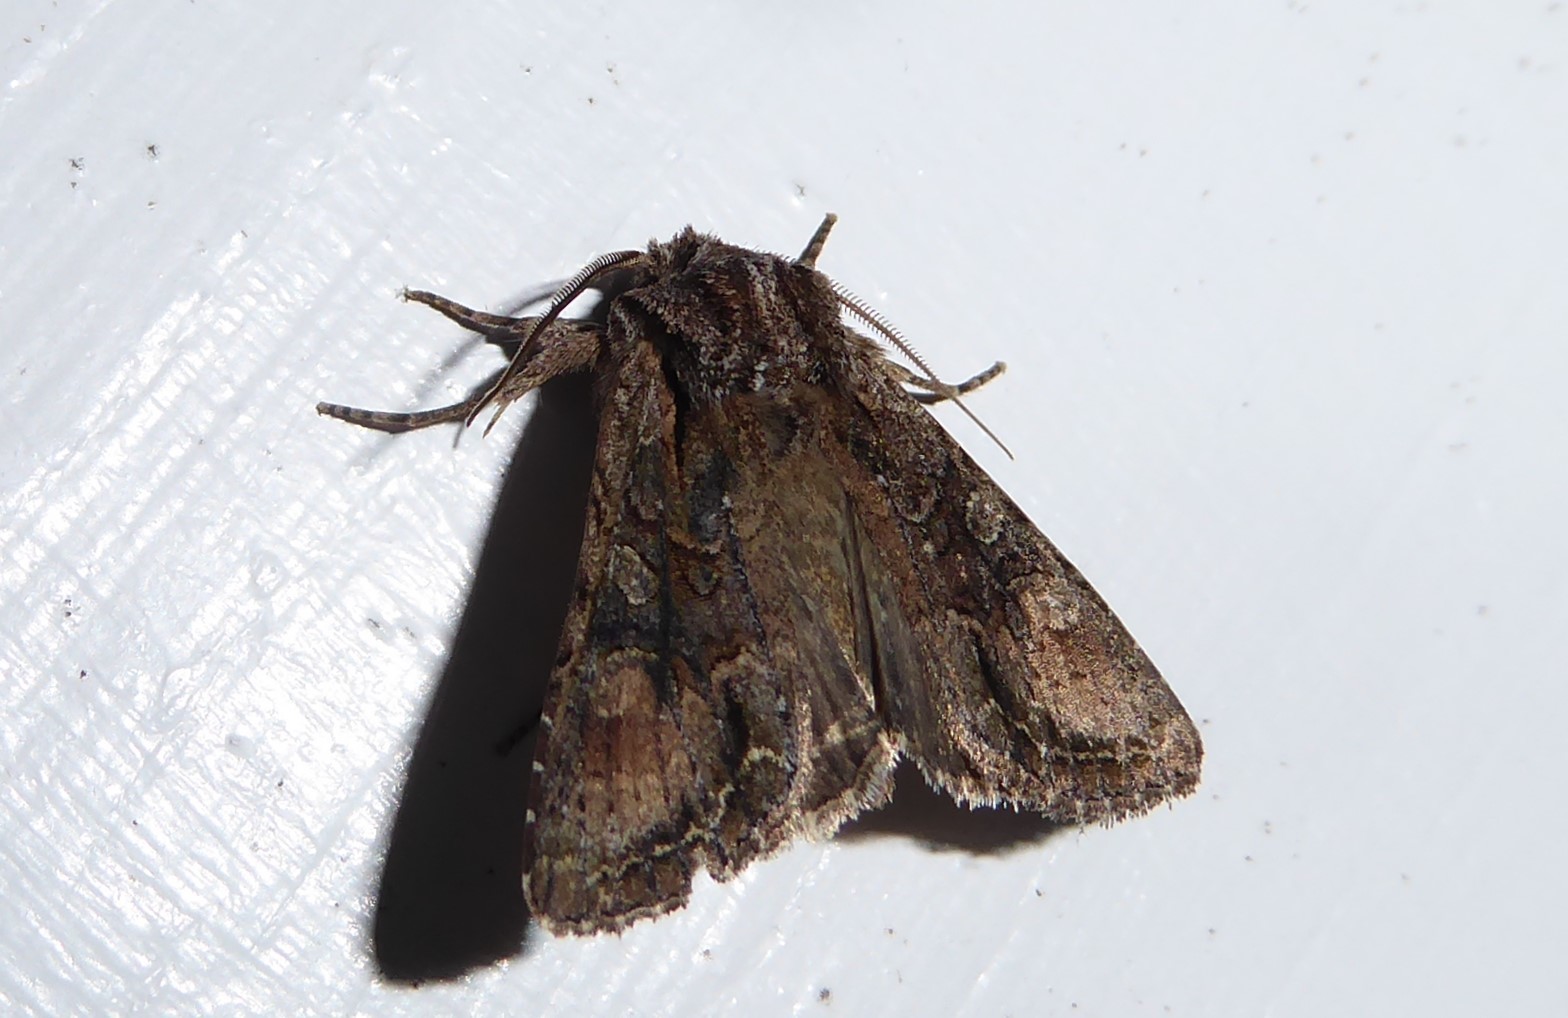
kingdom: Animalia
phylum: Arthropoda
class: Insecta
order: Lepidoptera
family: Noctuidae
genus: Ichneutica
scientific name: Ichneutica mutans
